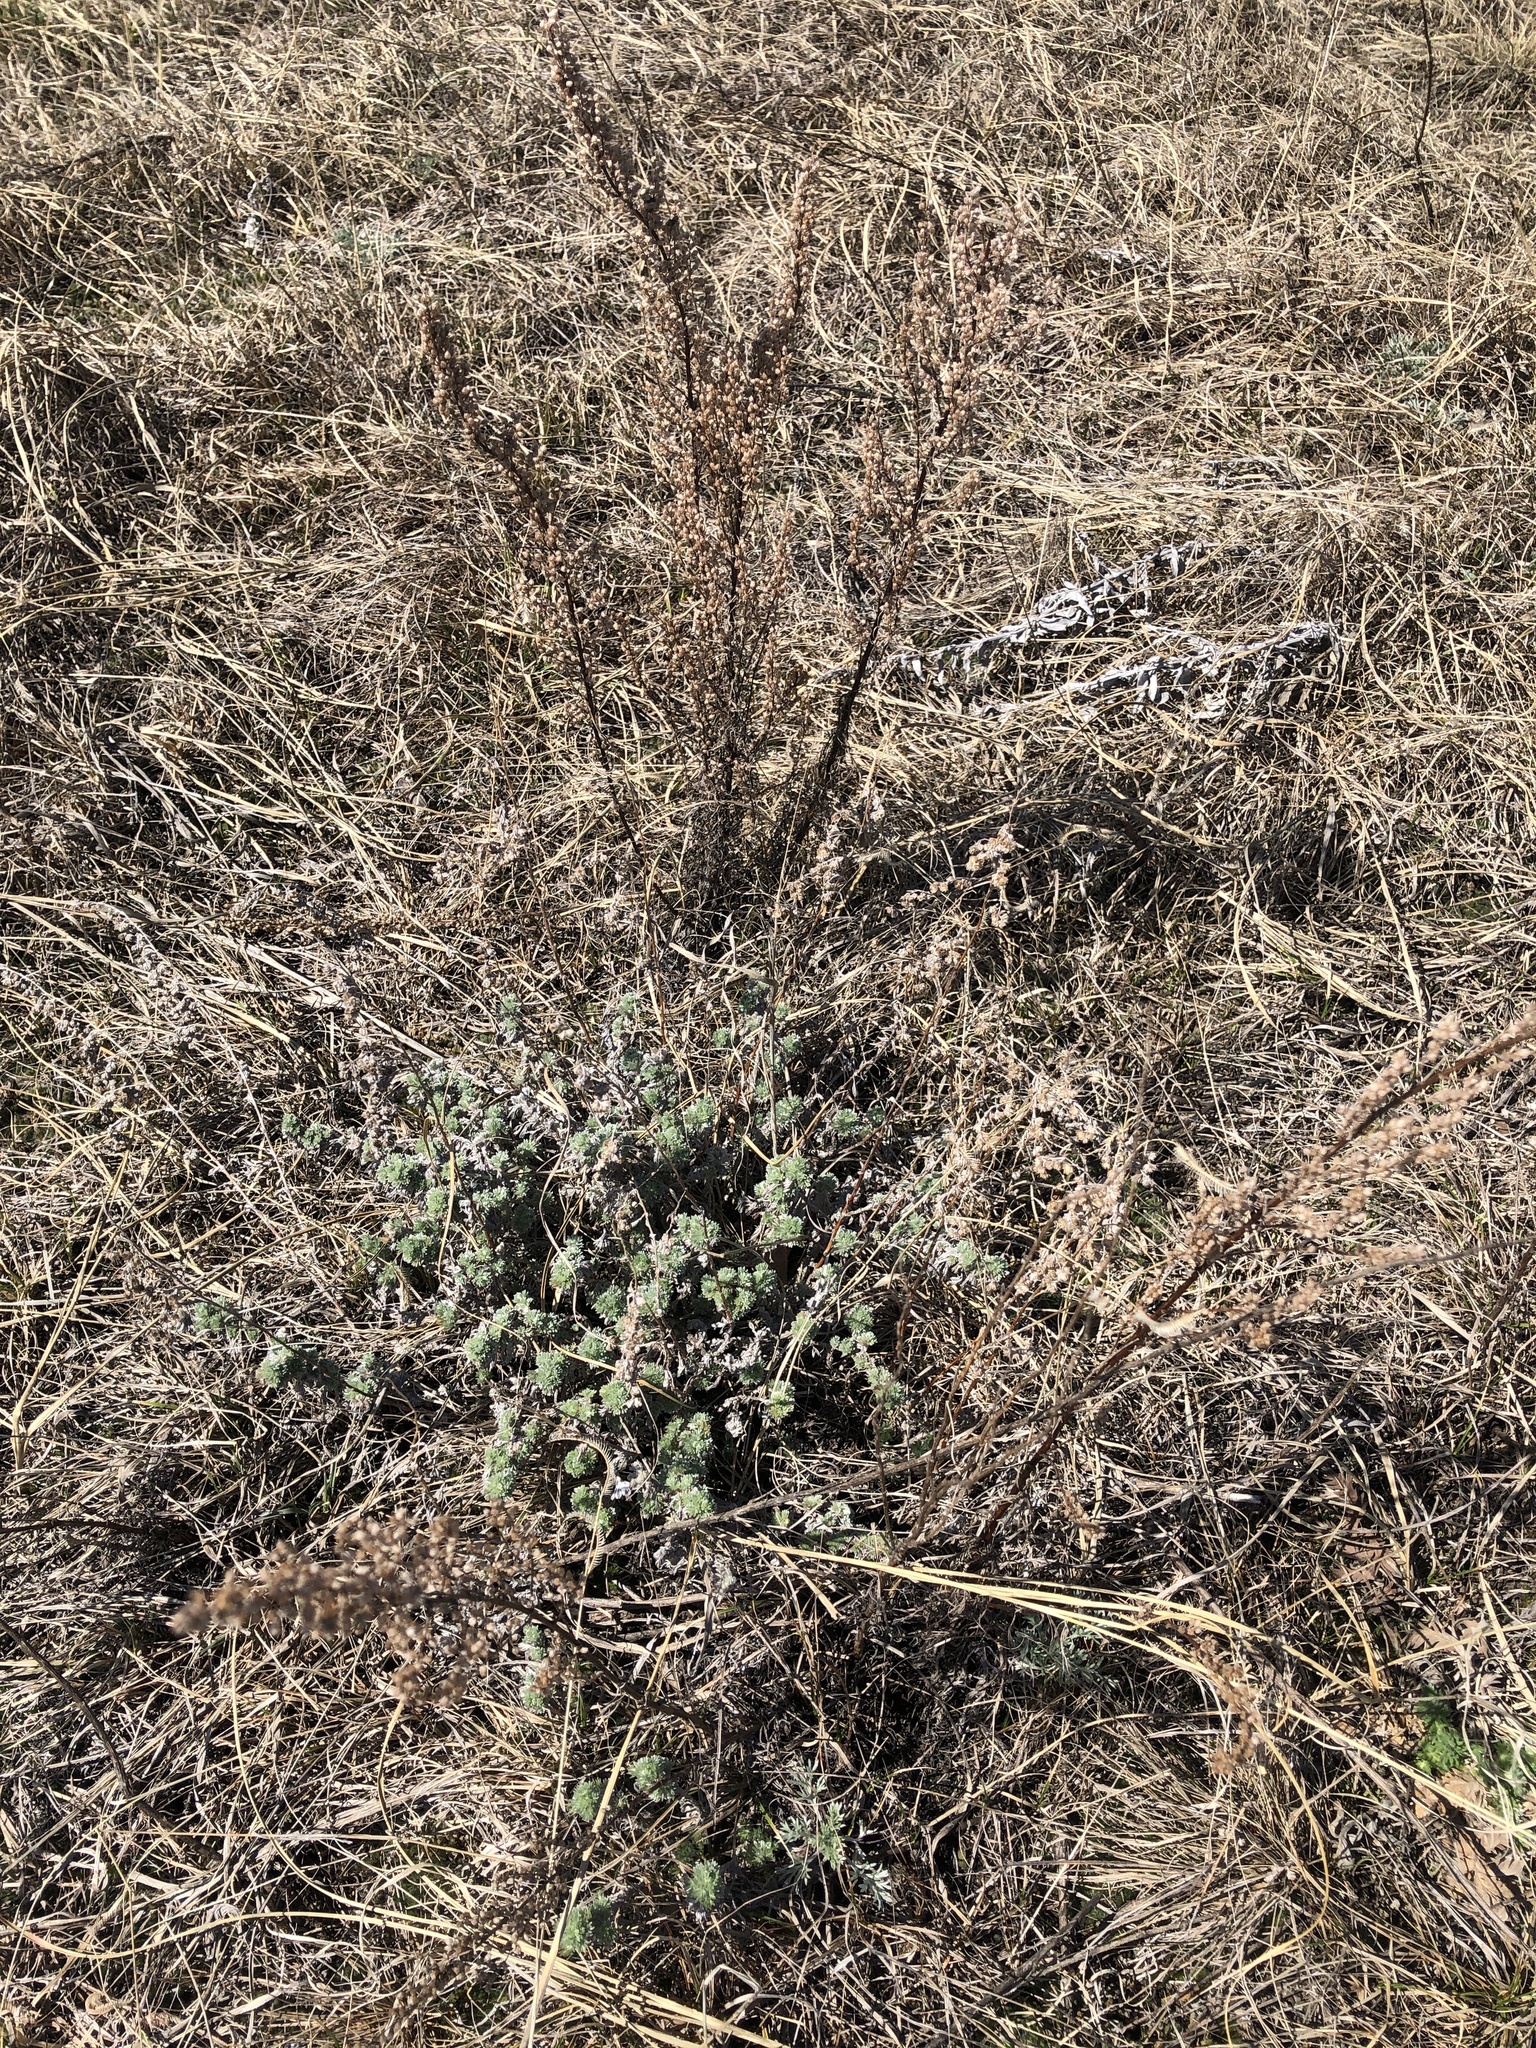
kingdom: Plantae
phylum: Tracheophyta
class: Magnoliopsida
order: Asterales
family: Asteraceae
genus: Artemisia
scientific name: Artemisia frigida
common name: Prairie sagewort
